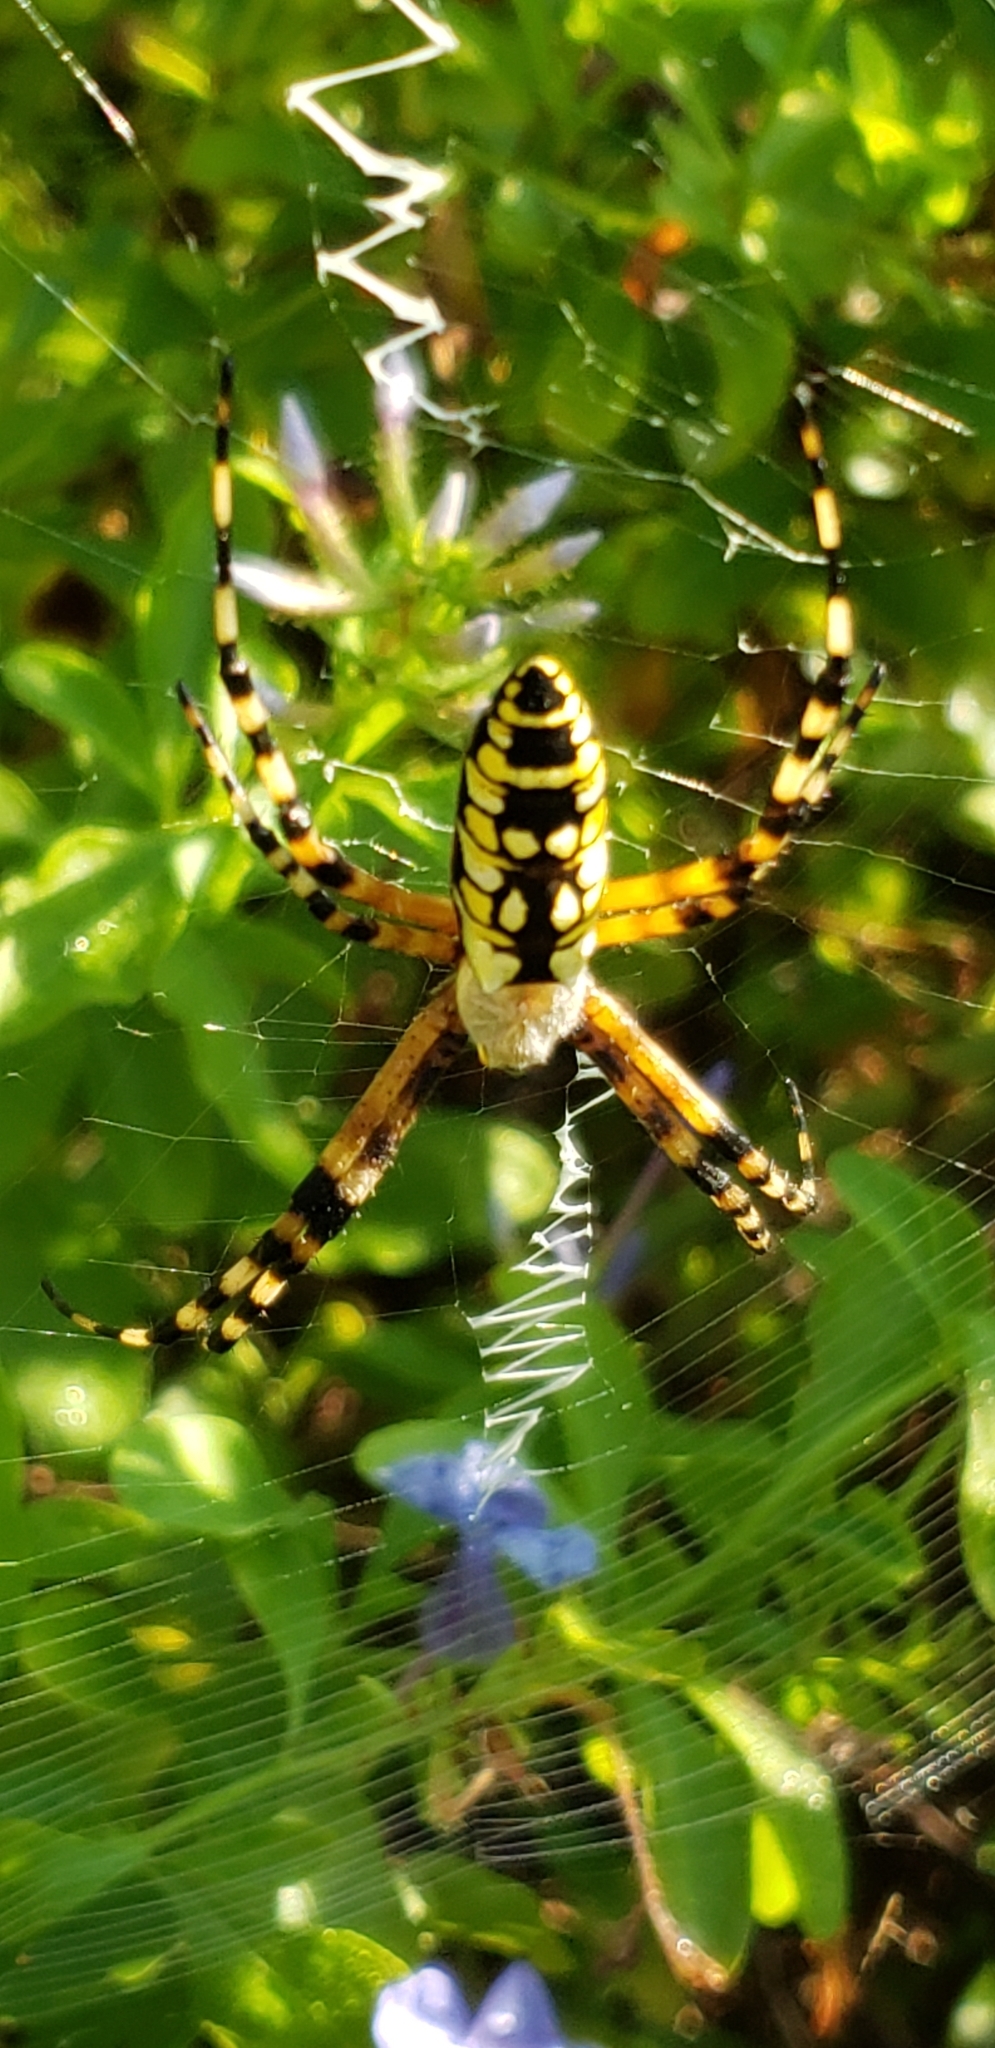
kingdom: Animalia
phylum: Arthropoda
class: Arachnida
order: Araneae
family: Araneidae
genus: Argiope
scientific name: Argiope aurantia
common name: Orb weavers
